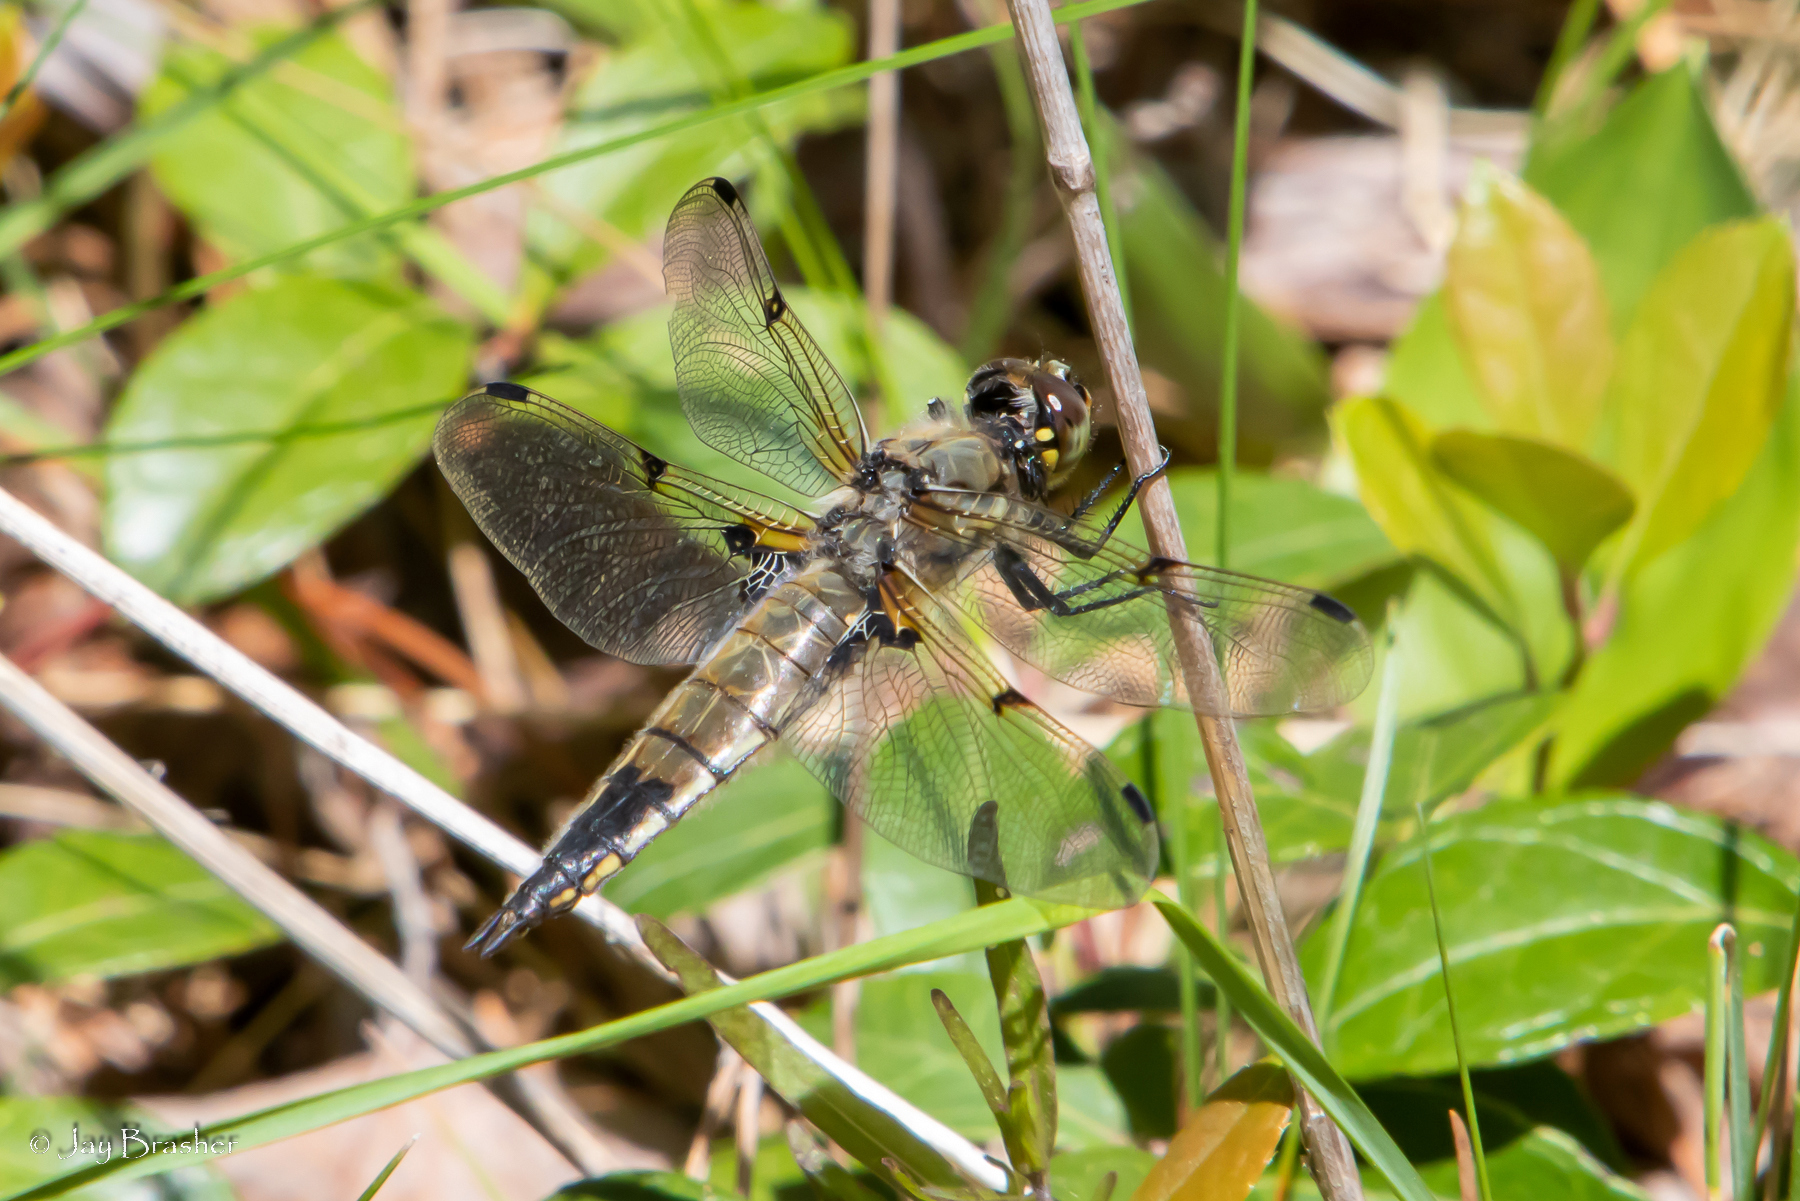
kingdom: Animalia
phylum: Arthropoda
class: Insecta
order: Odonata
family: Libellulidae
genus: Libellula
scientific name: Libellula quadrimaculata
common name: Four-spotted chaser
